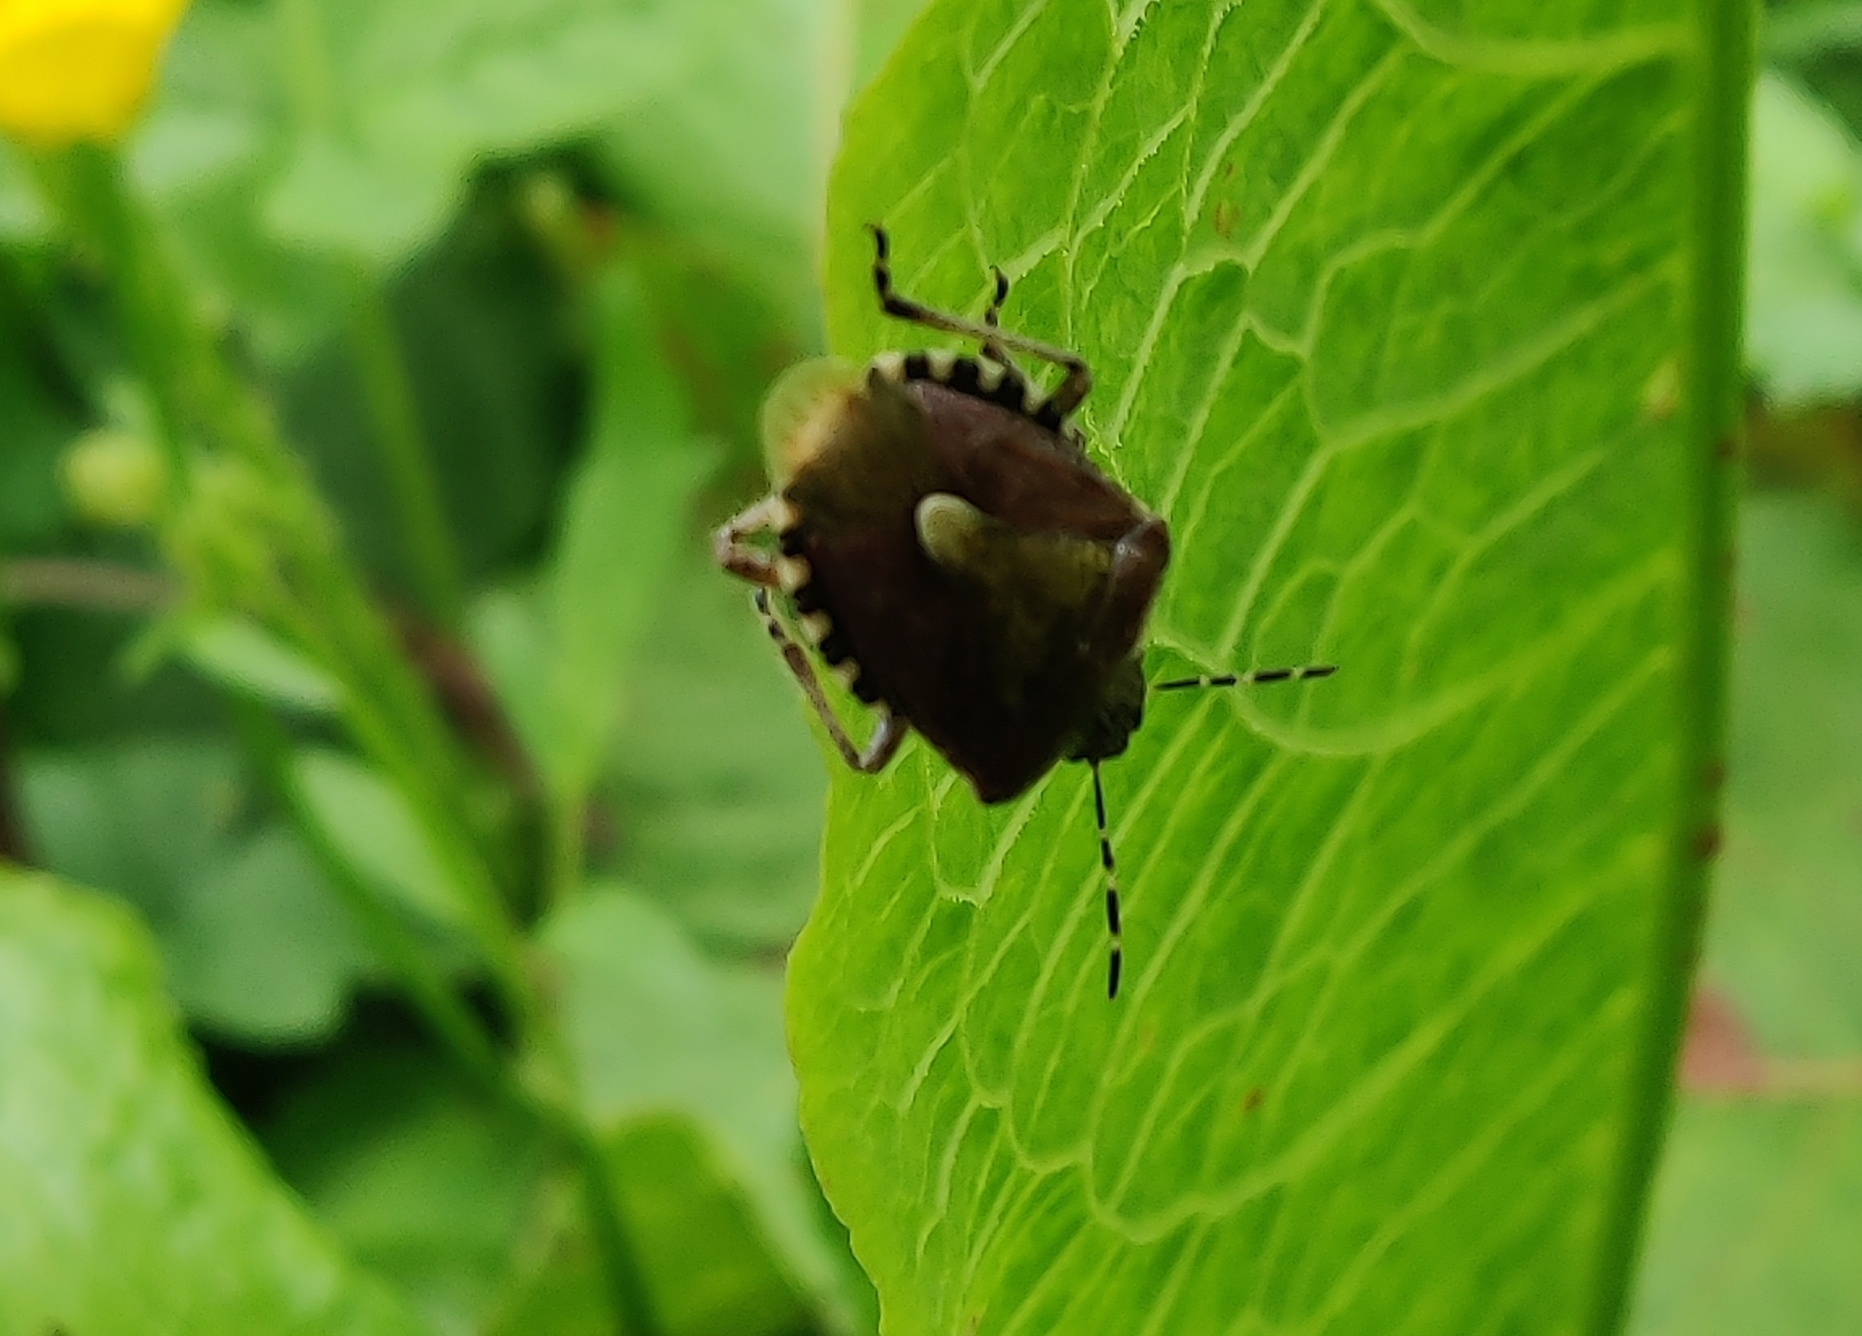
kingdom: Animalia
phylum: Arthropoda
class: Insecta
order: Hemiptera
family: Pentatomidae
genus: Dolycoris
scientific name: Dolycoris baccarum
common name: Sloe bug
